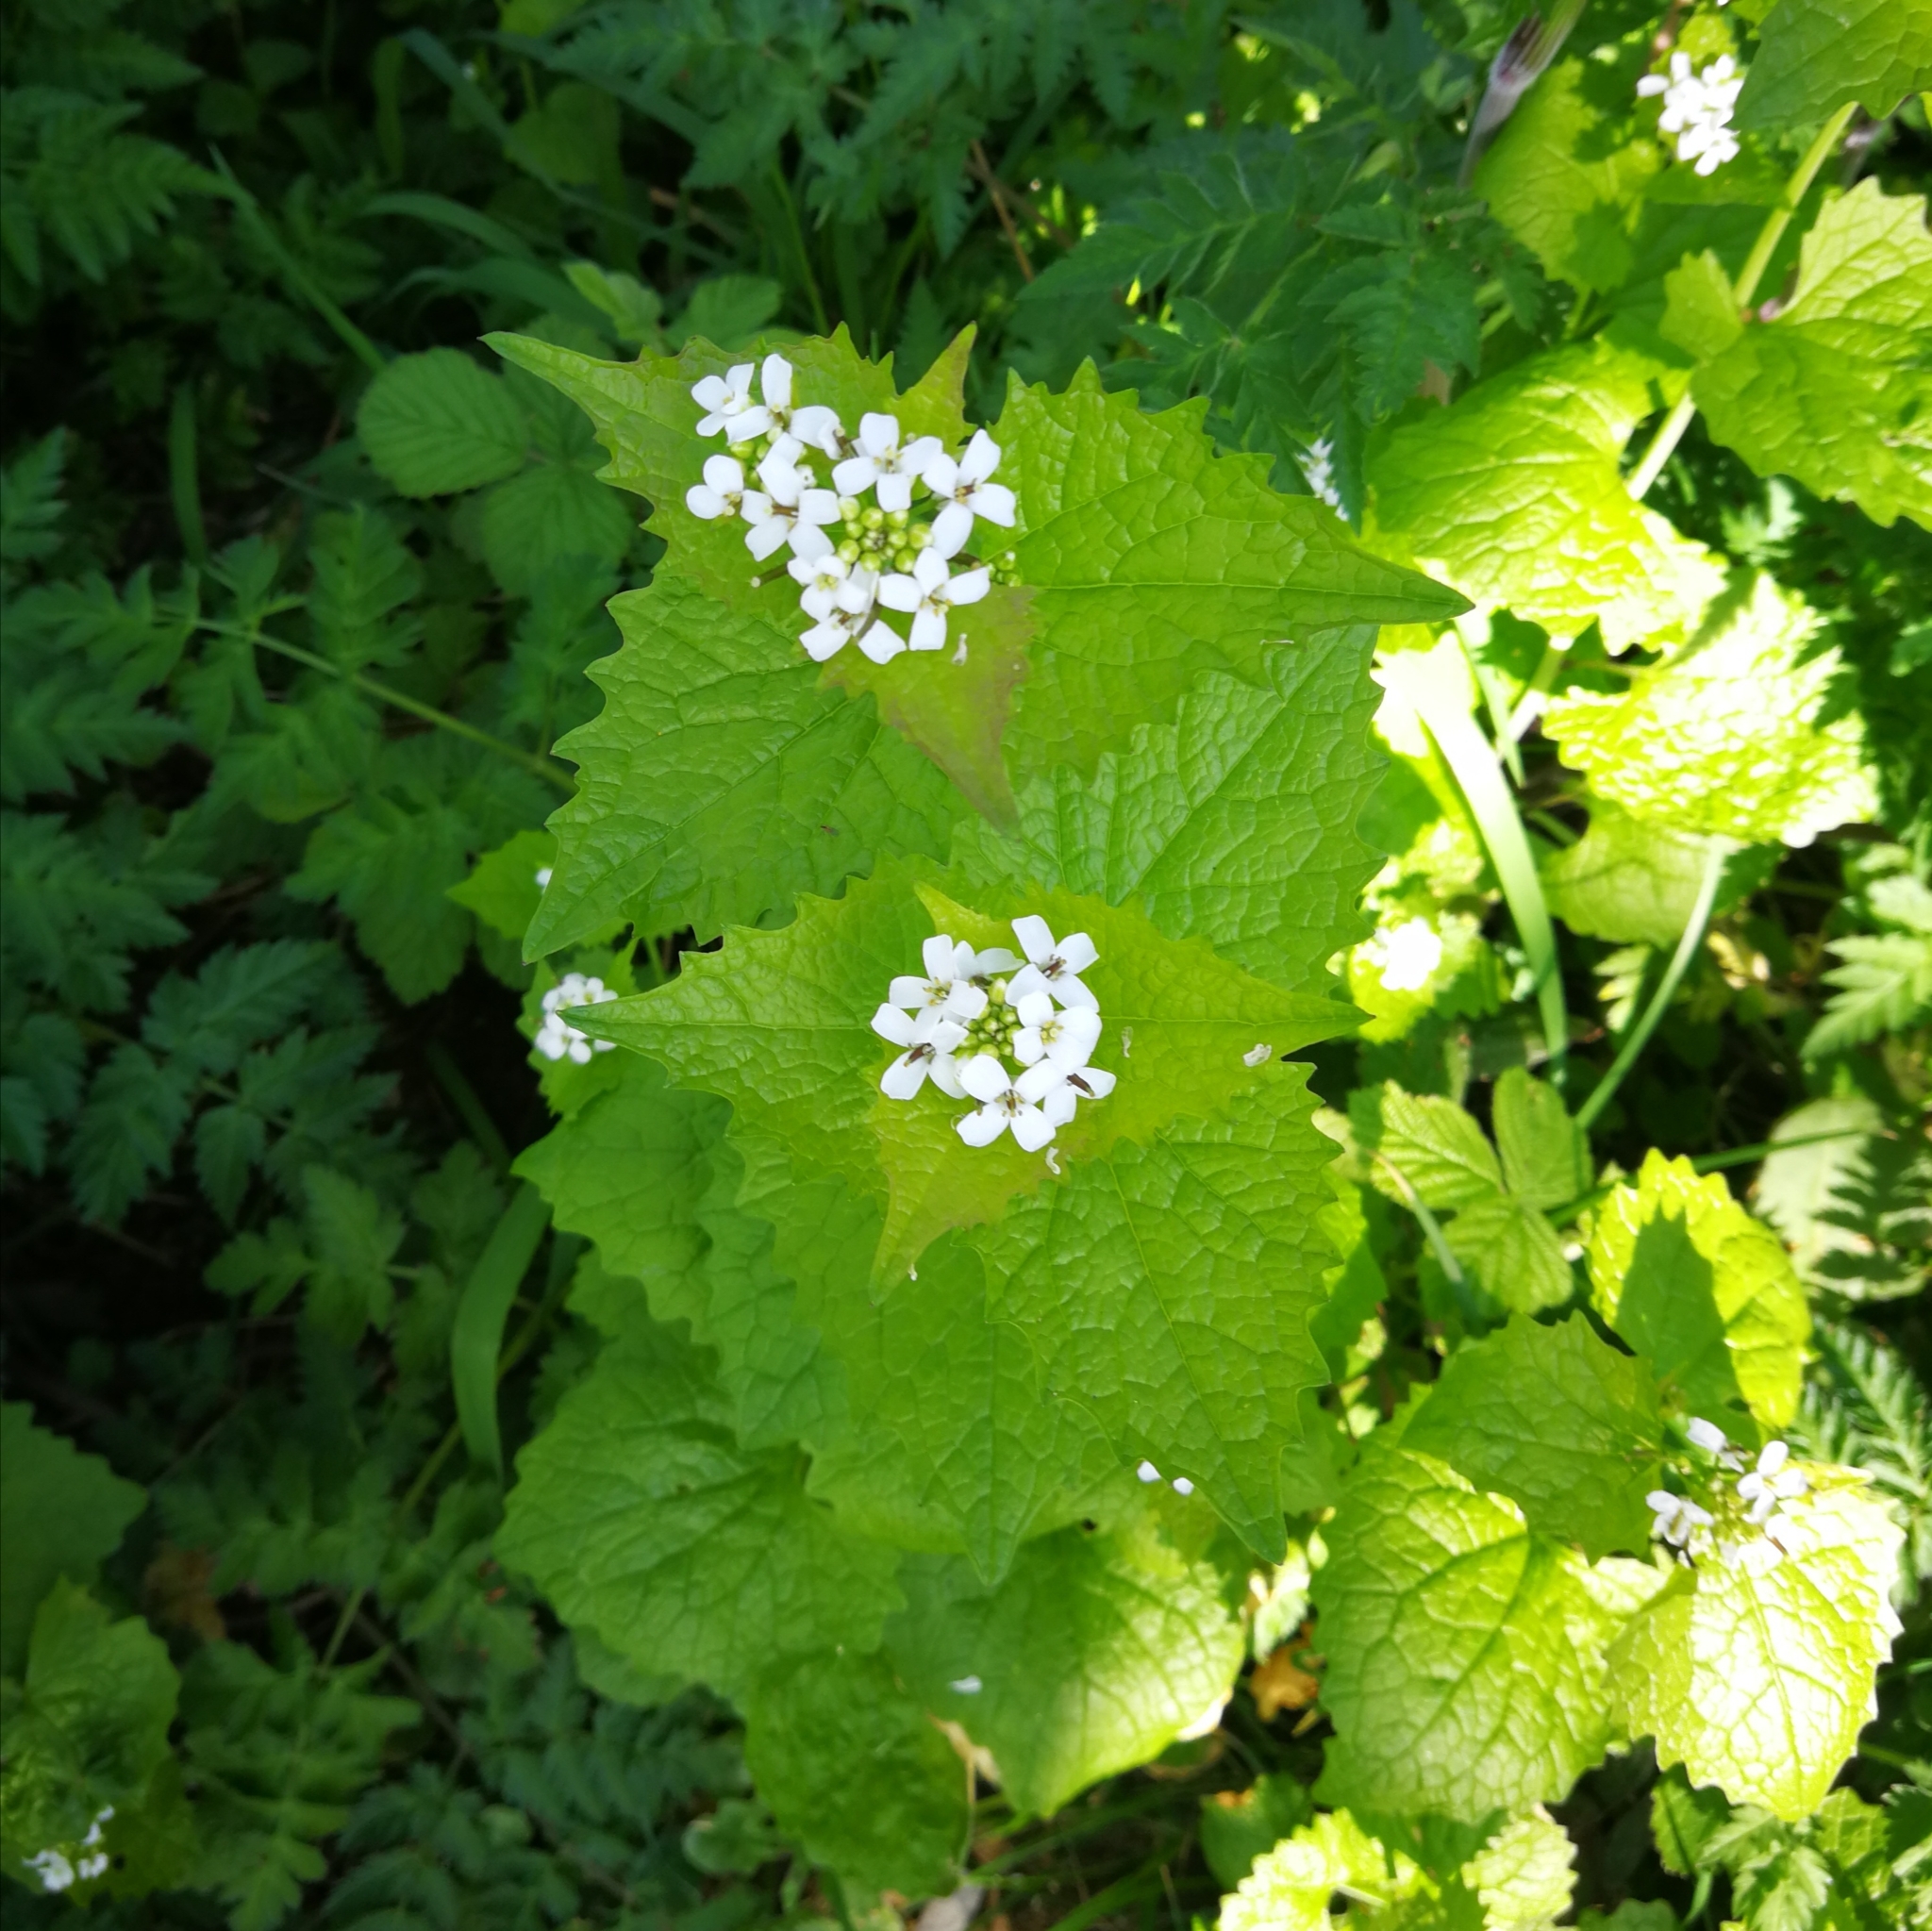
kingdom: Plantae
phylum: Tracheophyta
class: Magnoliopsida
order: Brassicales
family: Brassicaceae
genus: Alliaria
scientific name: Alliaria petiolata
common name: Garlic mustard
